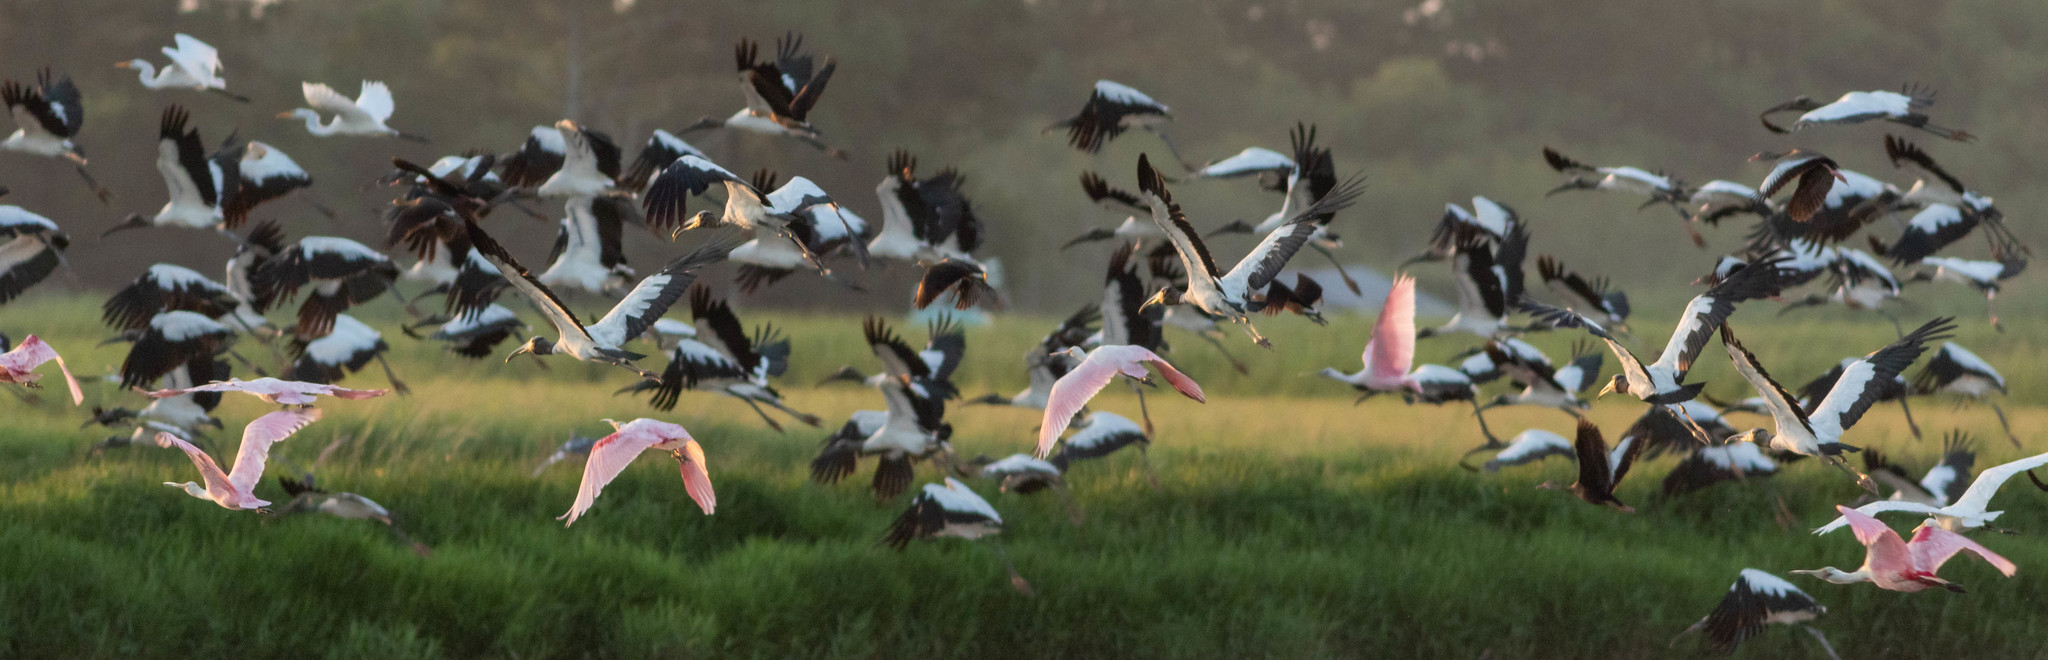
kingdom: Animalia
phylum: Chordata
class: Aves
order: Ciconiiformes
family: Ciconiidae
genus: Mycteria
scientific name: Mycteria americana
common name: Wood stork
